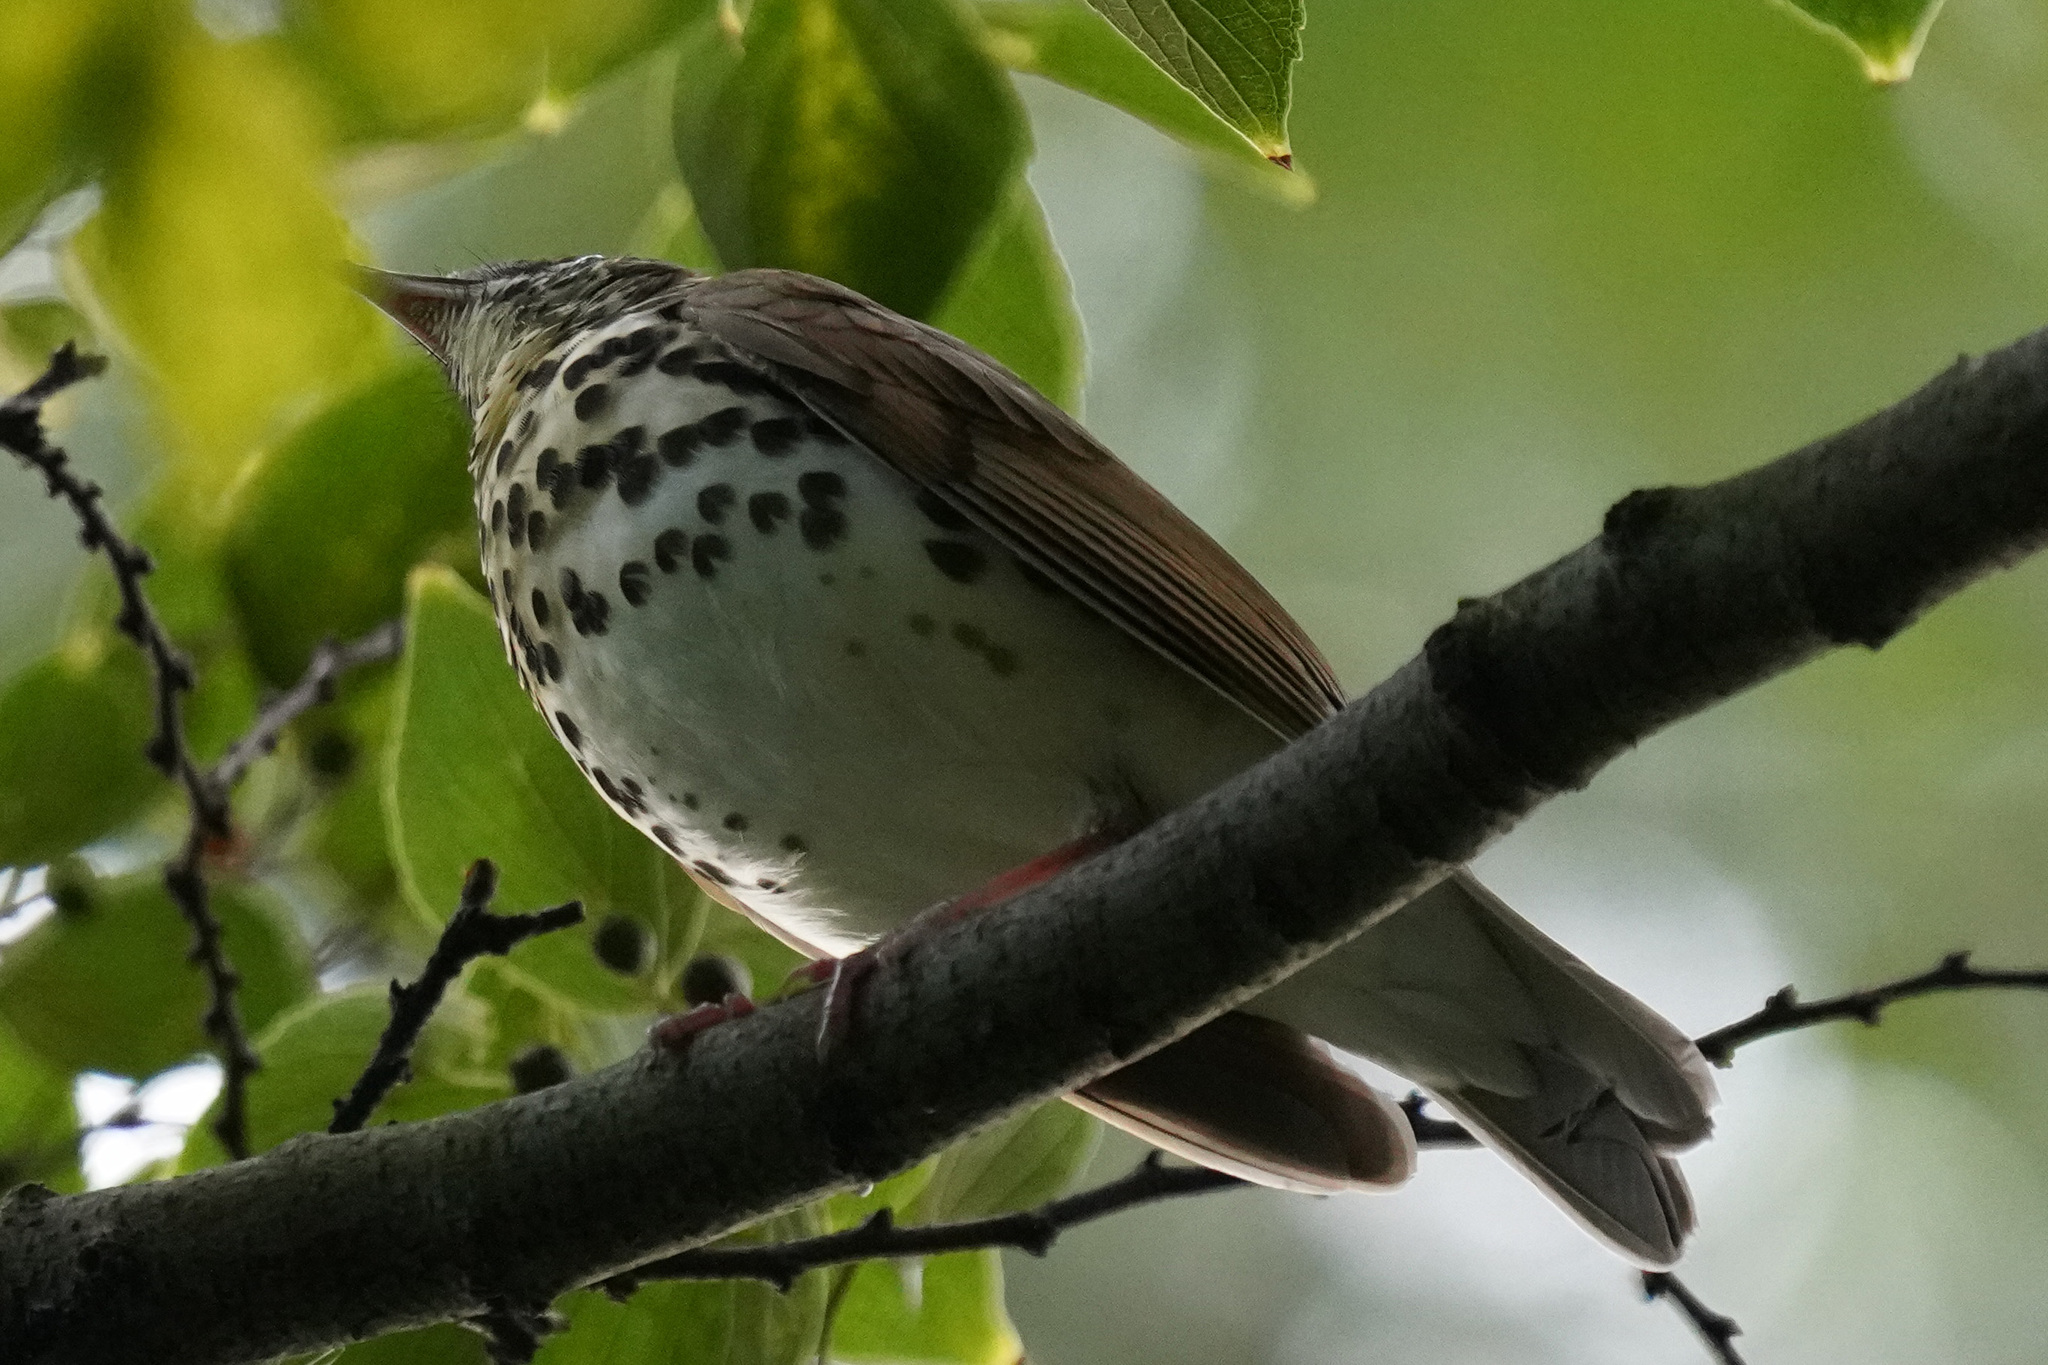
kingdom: Animalia
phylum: Chordata
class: Aves
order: Passeriformes
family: Turdidae
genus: Hylocichla
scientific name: Hylocichla mustelina
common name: Wood thrush
